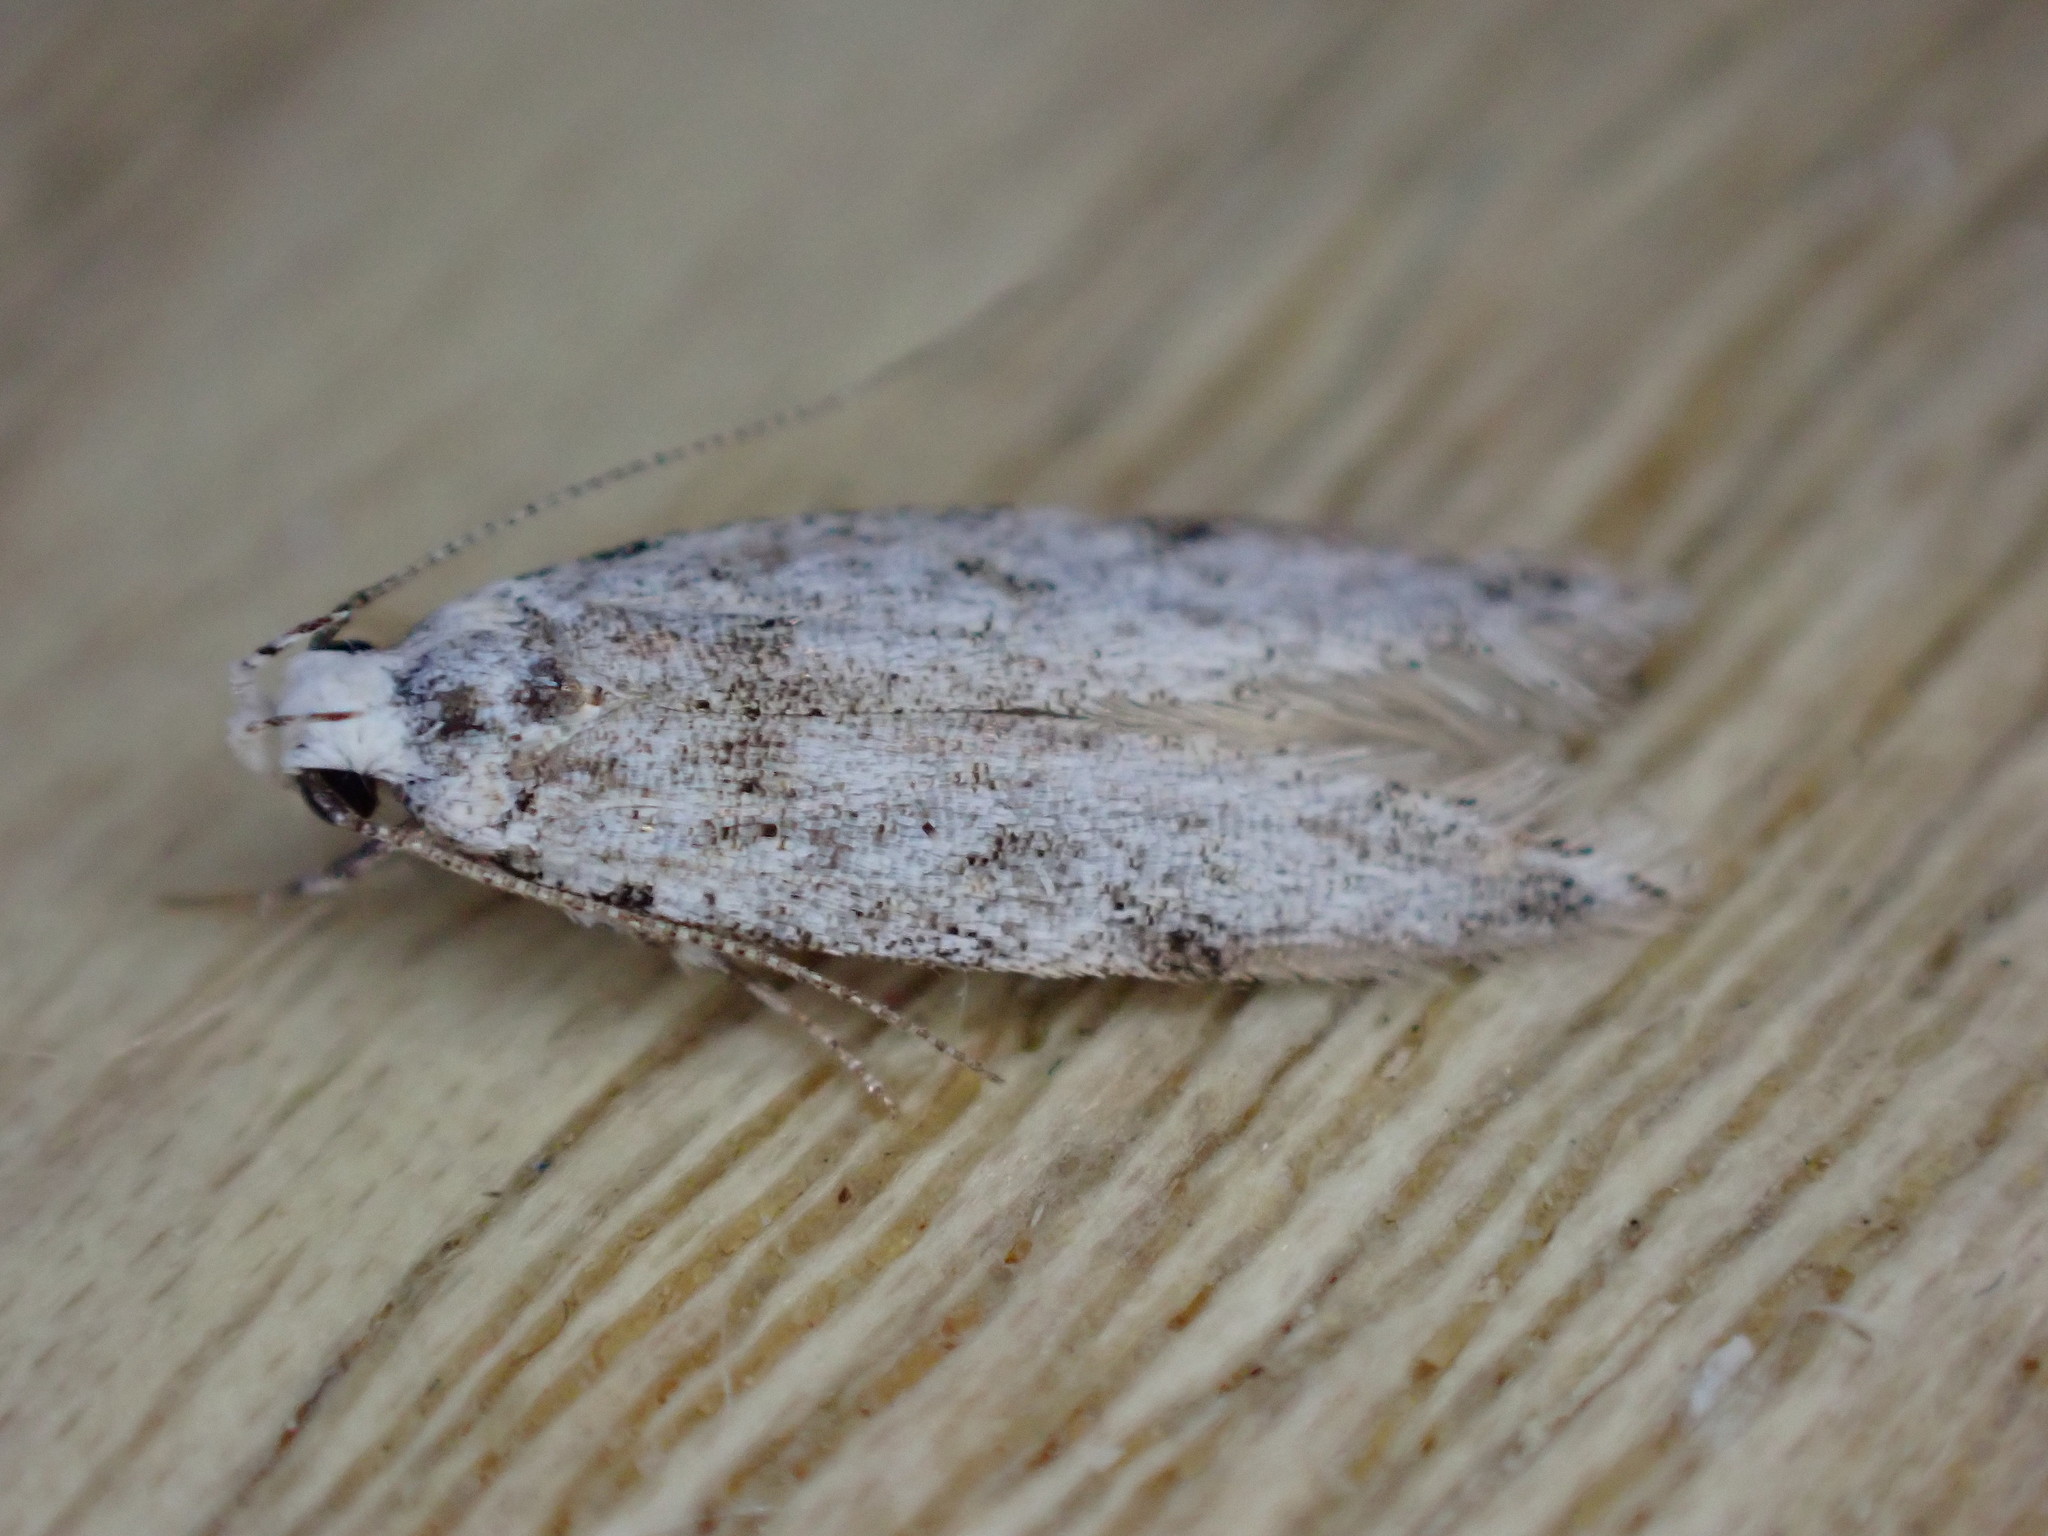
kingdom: Animalia
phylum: Arthropoda
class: Insecta
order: Lepidoptera
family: Oecophoridae
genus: Endrosis
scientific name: Endrosis sarcitrella
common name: White-shouldered house moth
